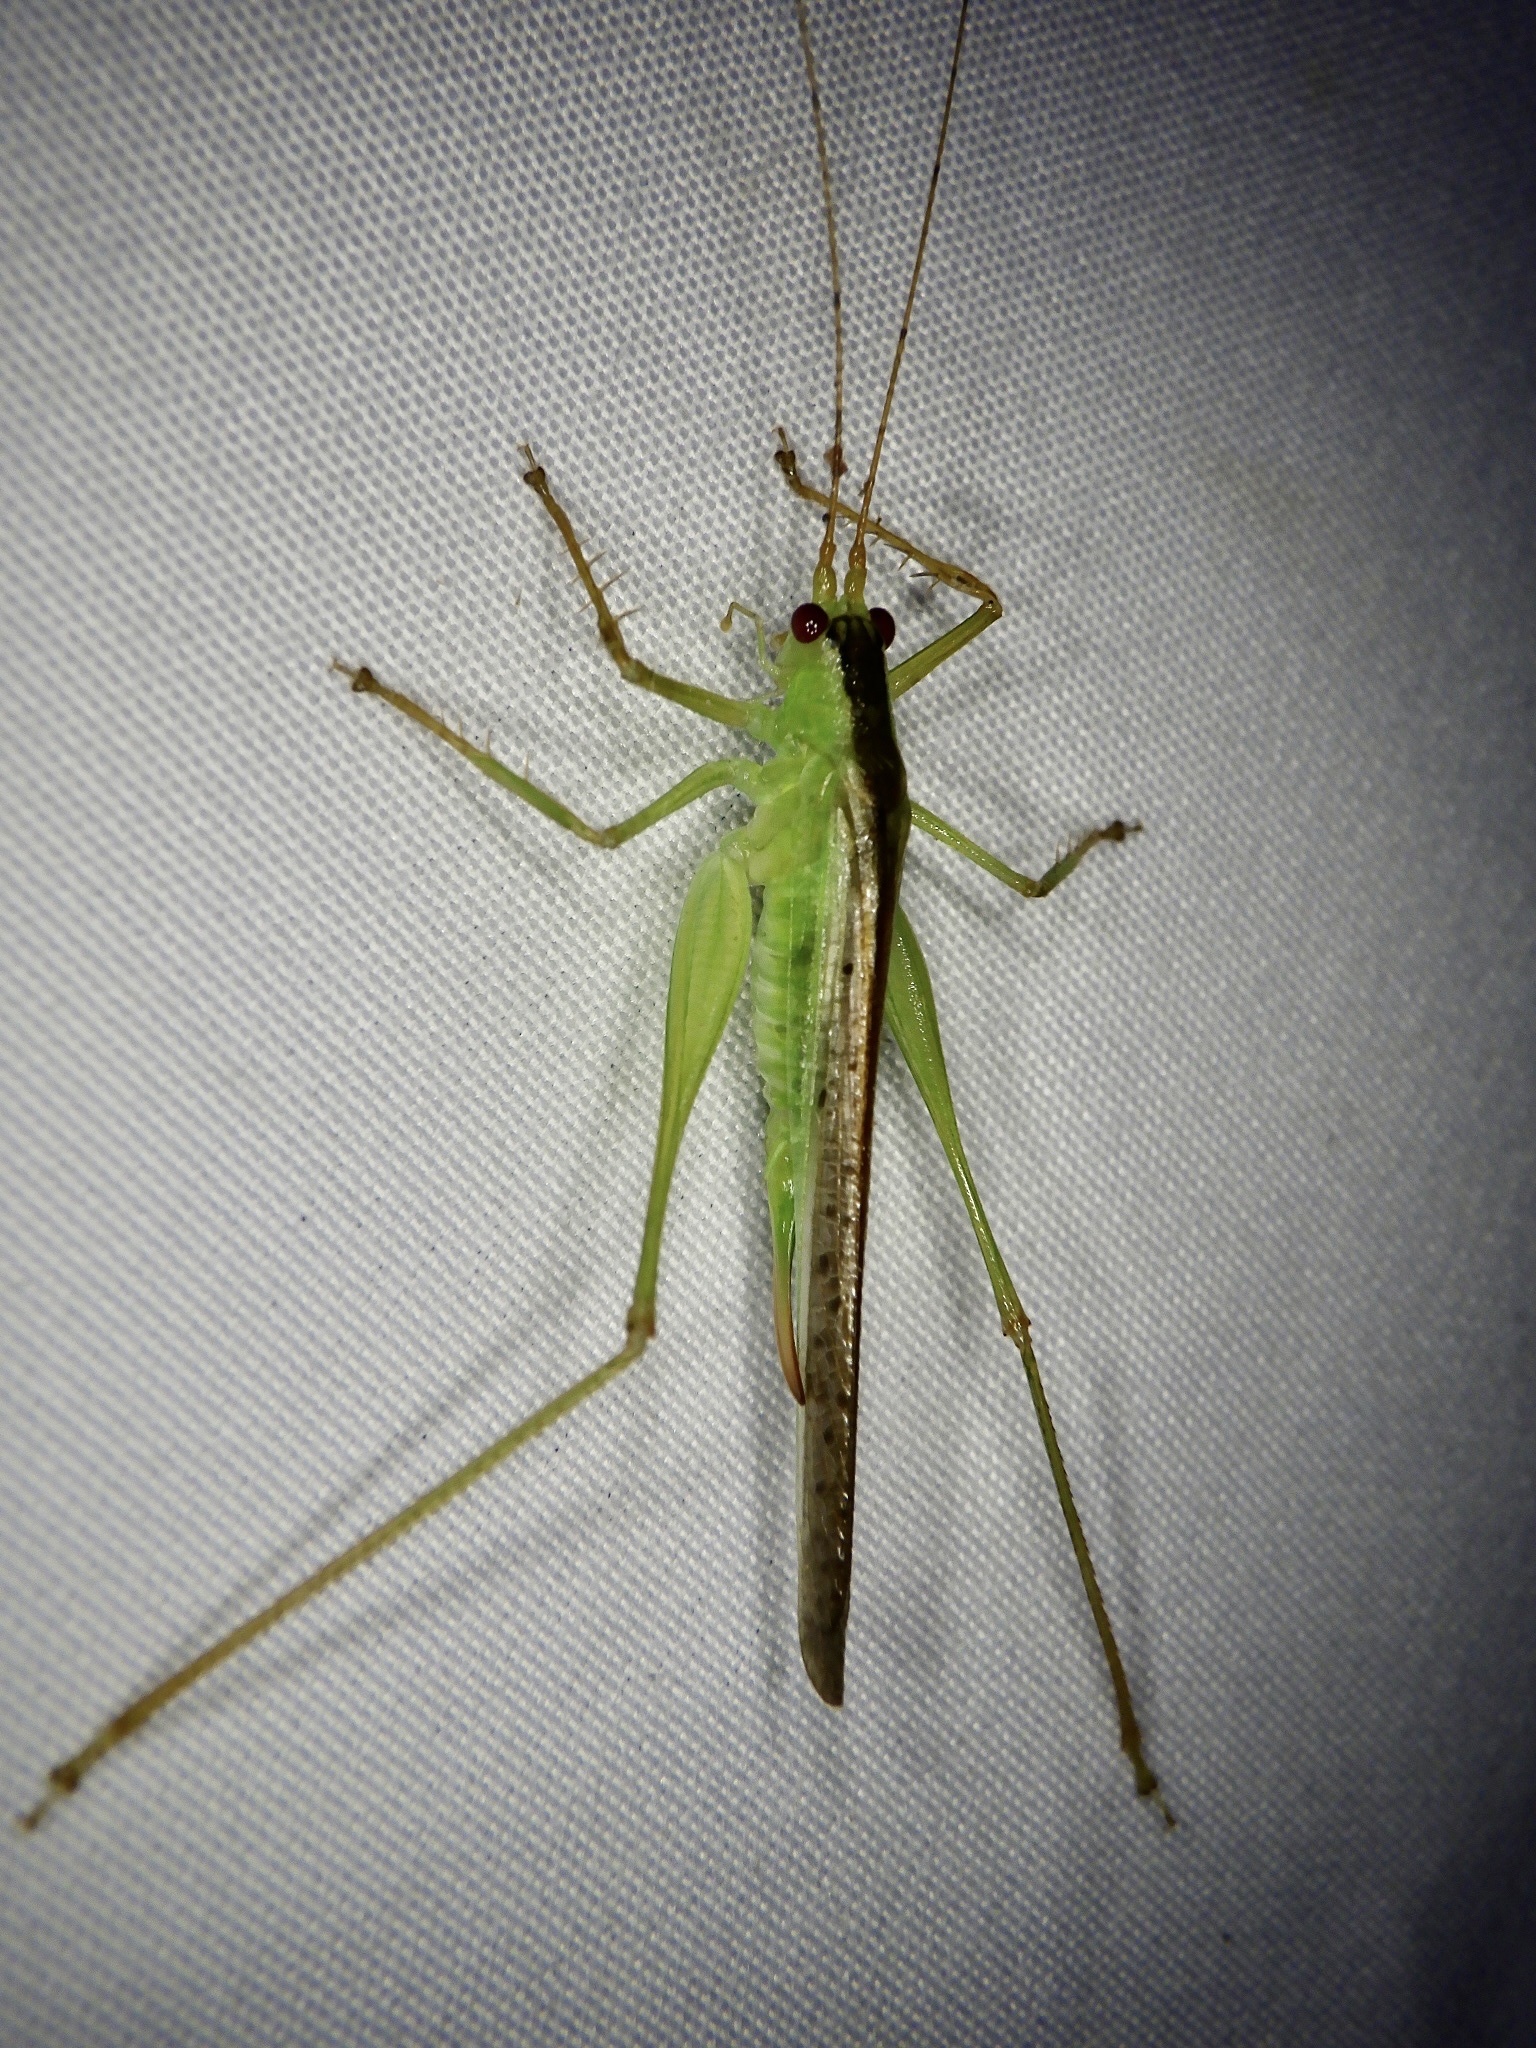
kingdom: Animalia
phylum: Arthropoda
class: Insecta
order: Orthoptera
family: Tettigoniidae
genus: Xiphidiopsis
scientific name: Xiphidiopsis subpunctata
